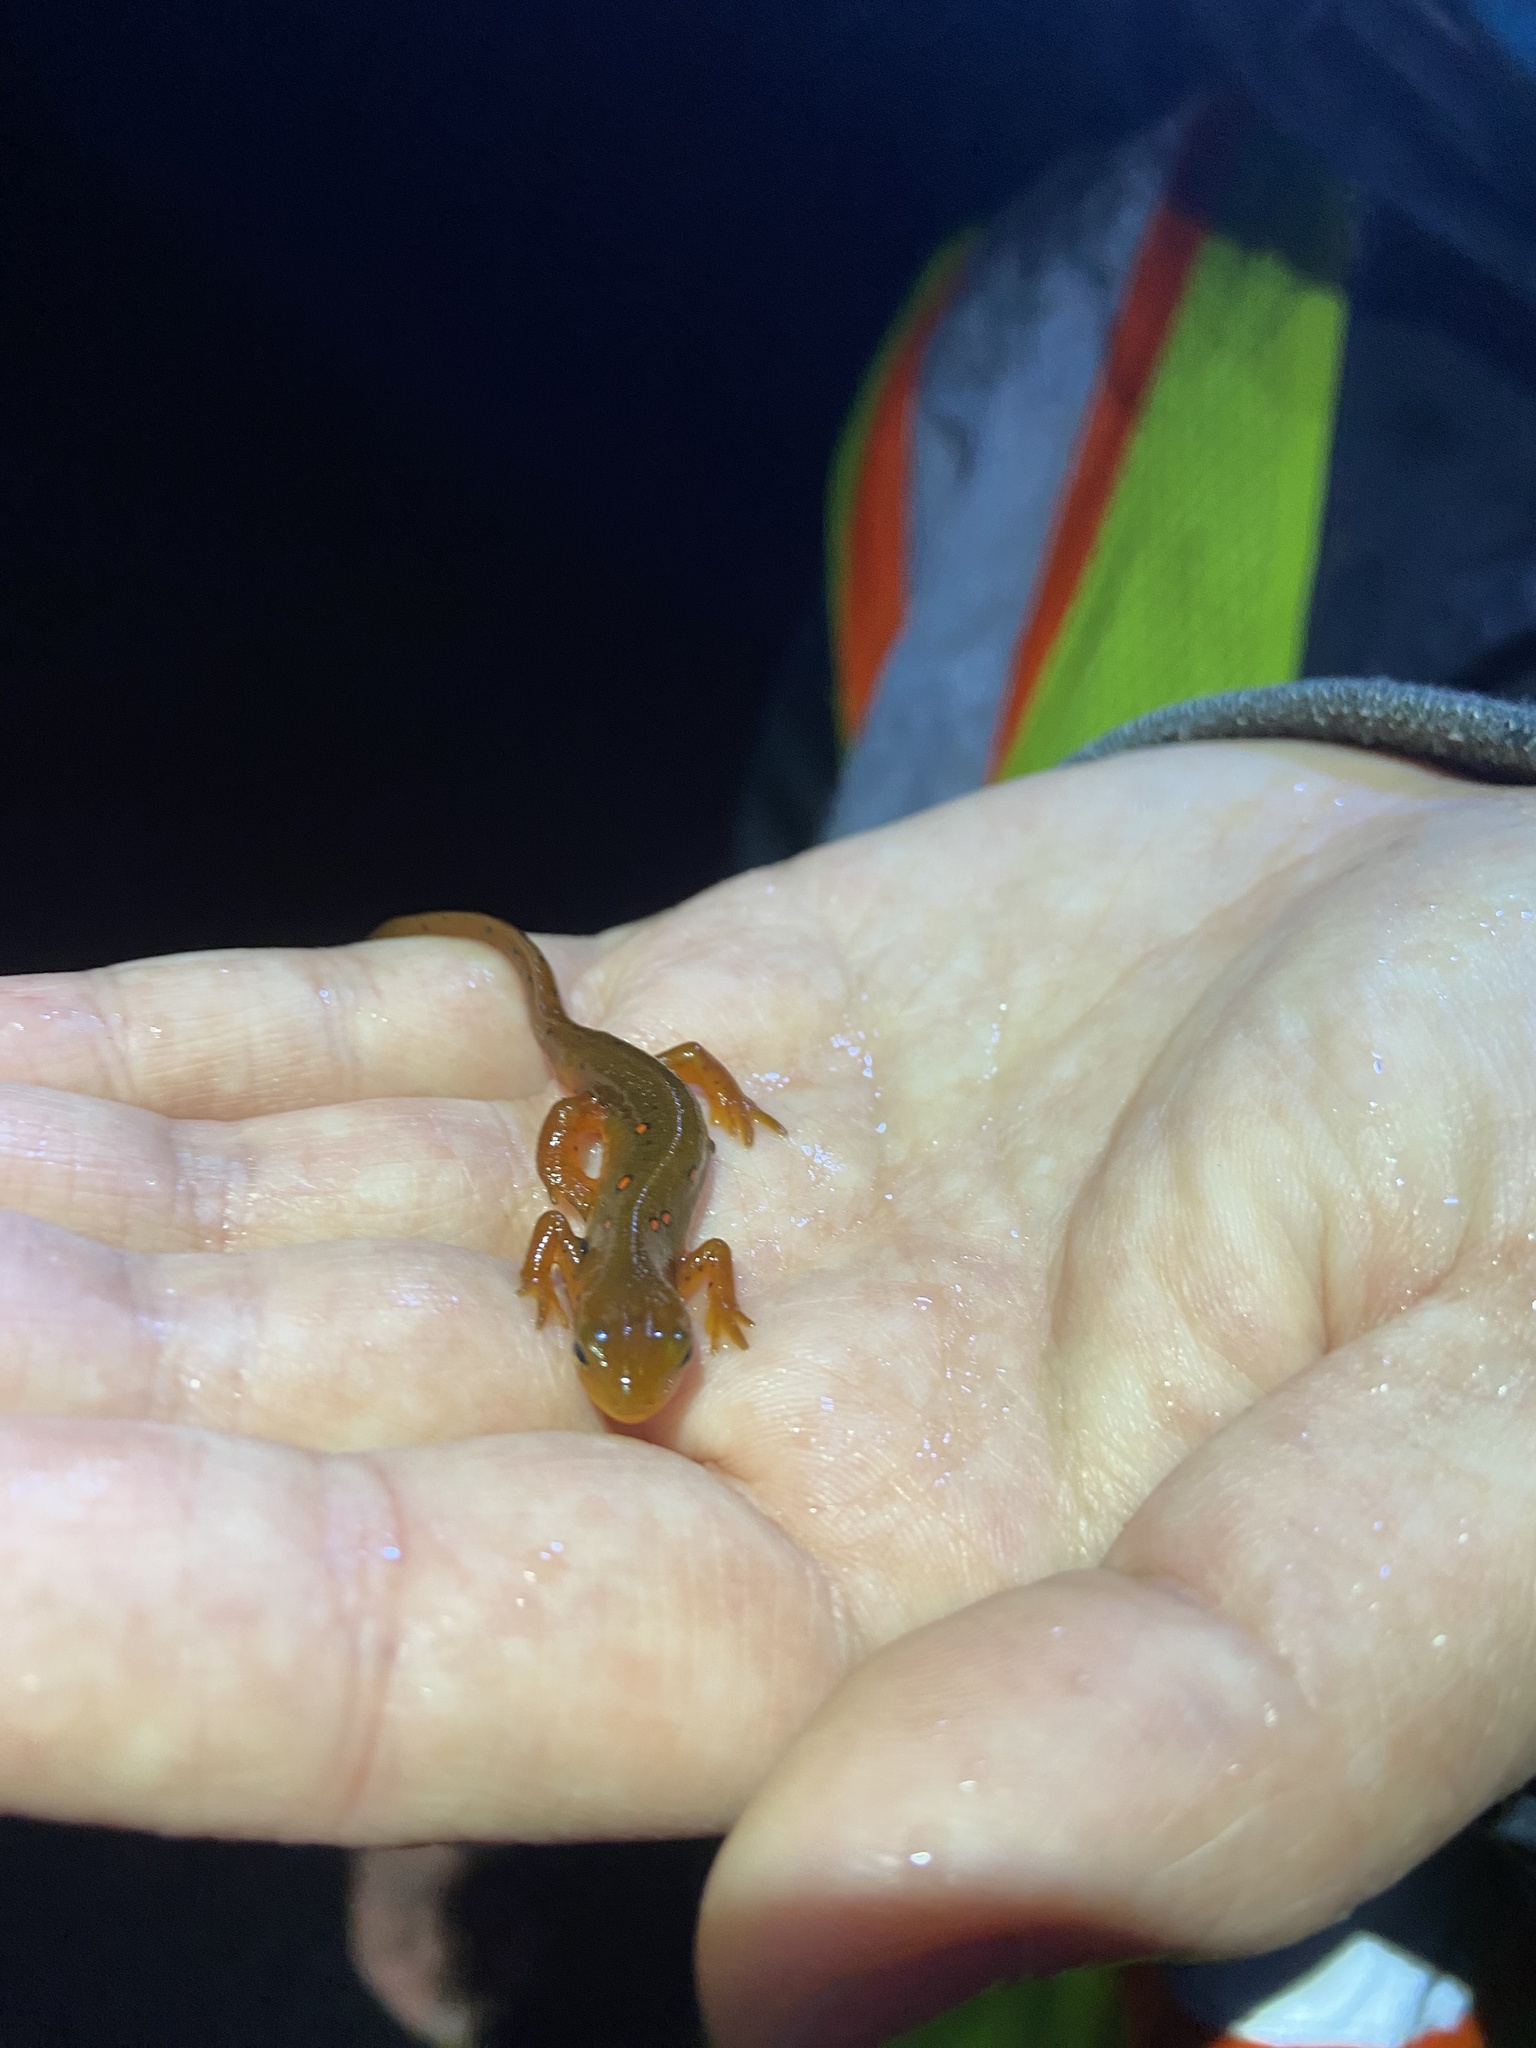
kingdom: Animalia
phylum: Chordata
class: Amphibia
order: Caudata
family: Salamandridae
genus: Notophthalmus
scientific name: Notophthalmus viridescens
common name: Eastern newt
